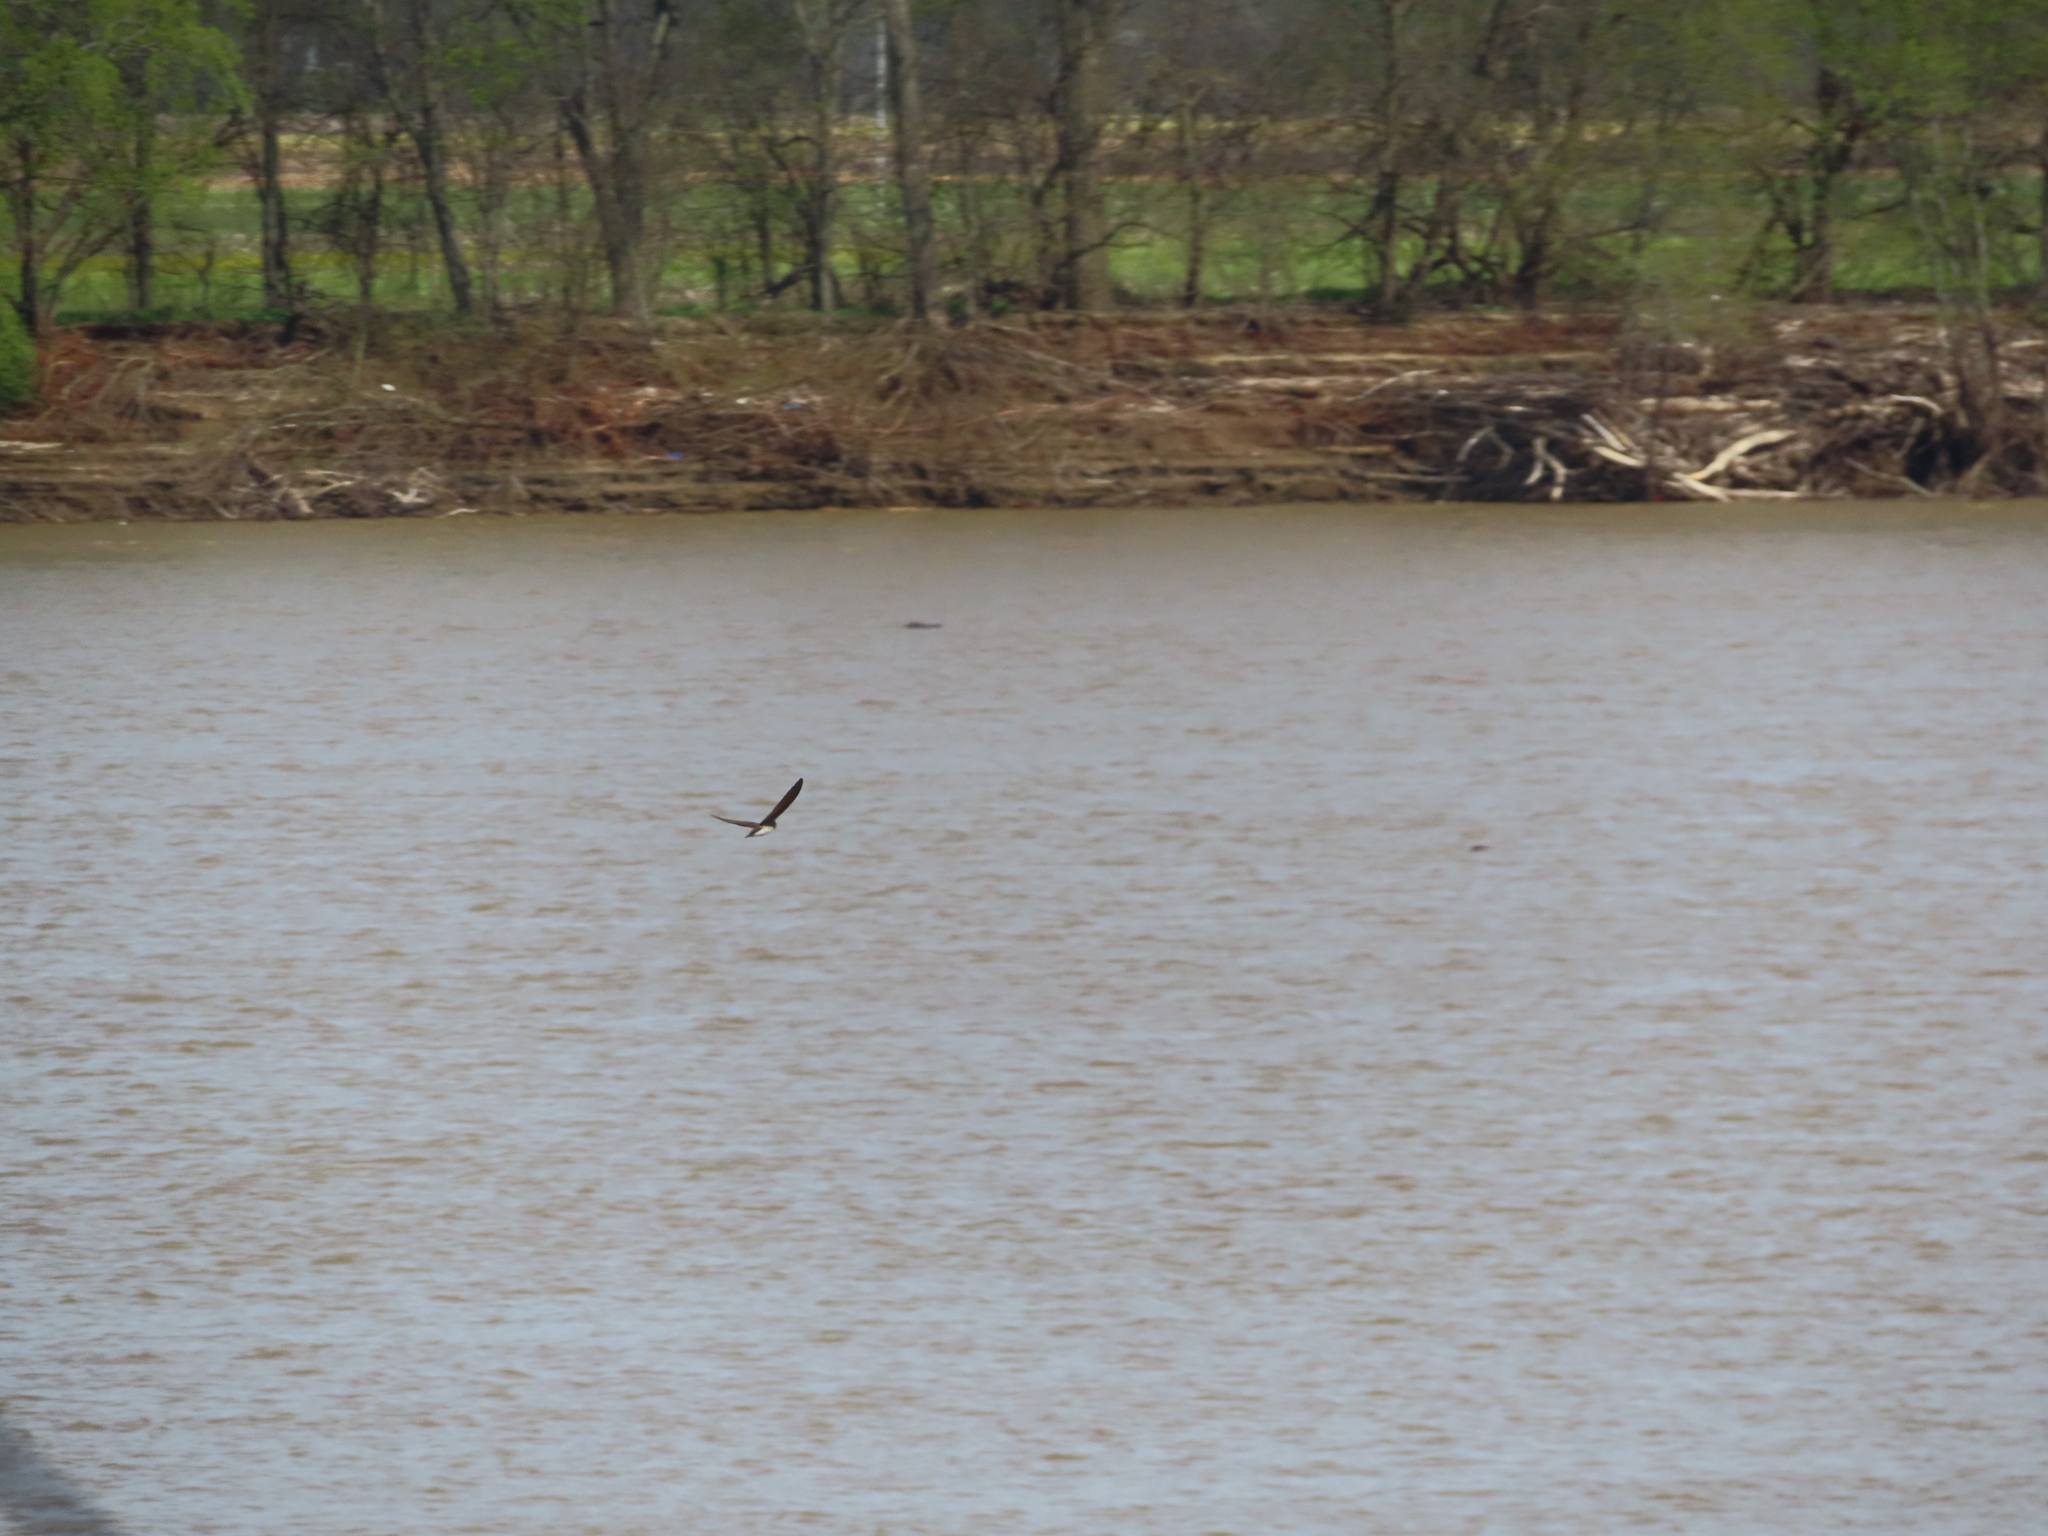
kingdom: Animalia
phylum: Chordata
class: Aves
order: Passeriformes
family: Hirundinidae
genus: Stelgidopteryx
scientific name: Stelgidopteryx serripennis
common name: Northern rough-winged swallow
